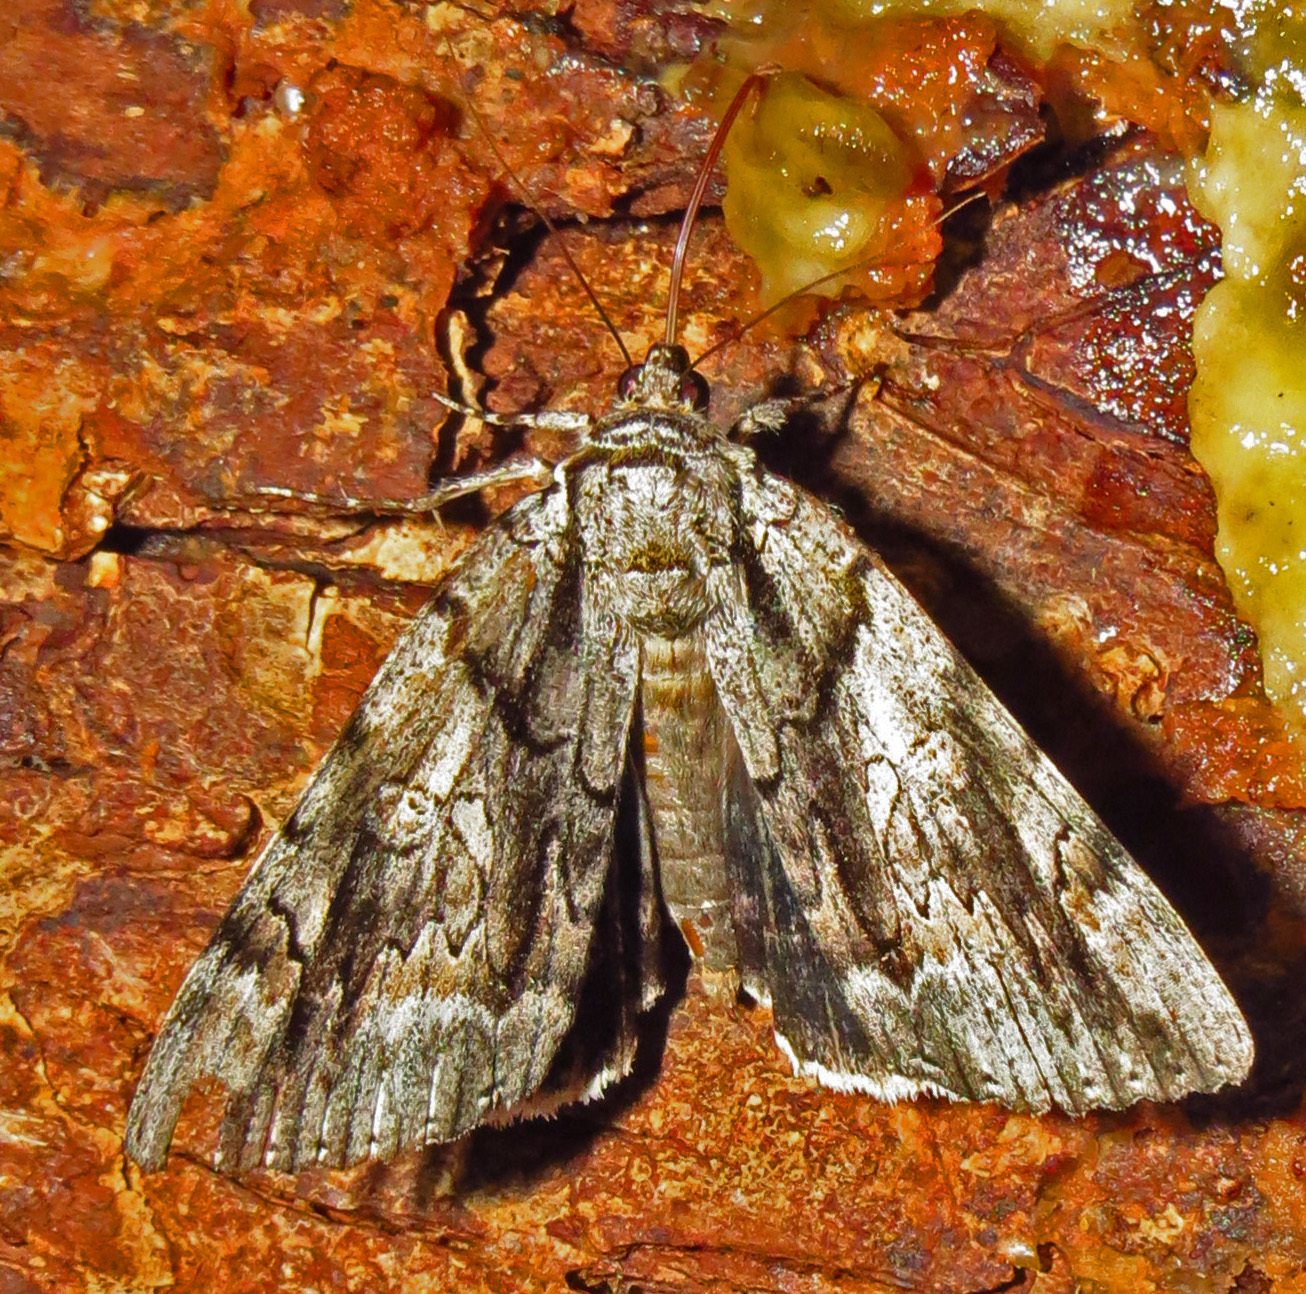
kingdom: Animalia
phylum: Arthropoda
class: Insecta
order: Lepidoptera
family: Erebidae
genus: Catocala
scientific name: Catocala vidua
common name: The widow
